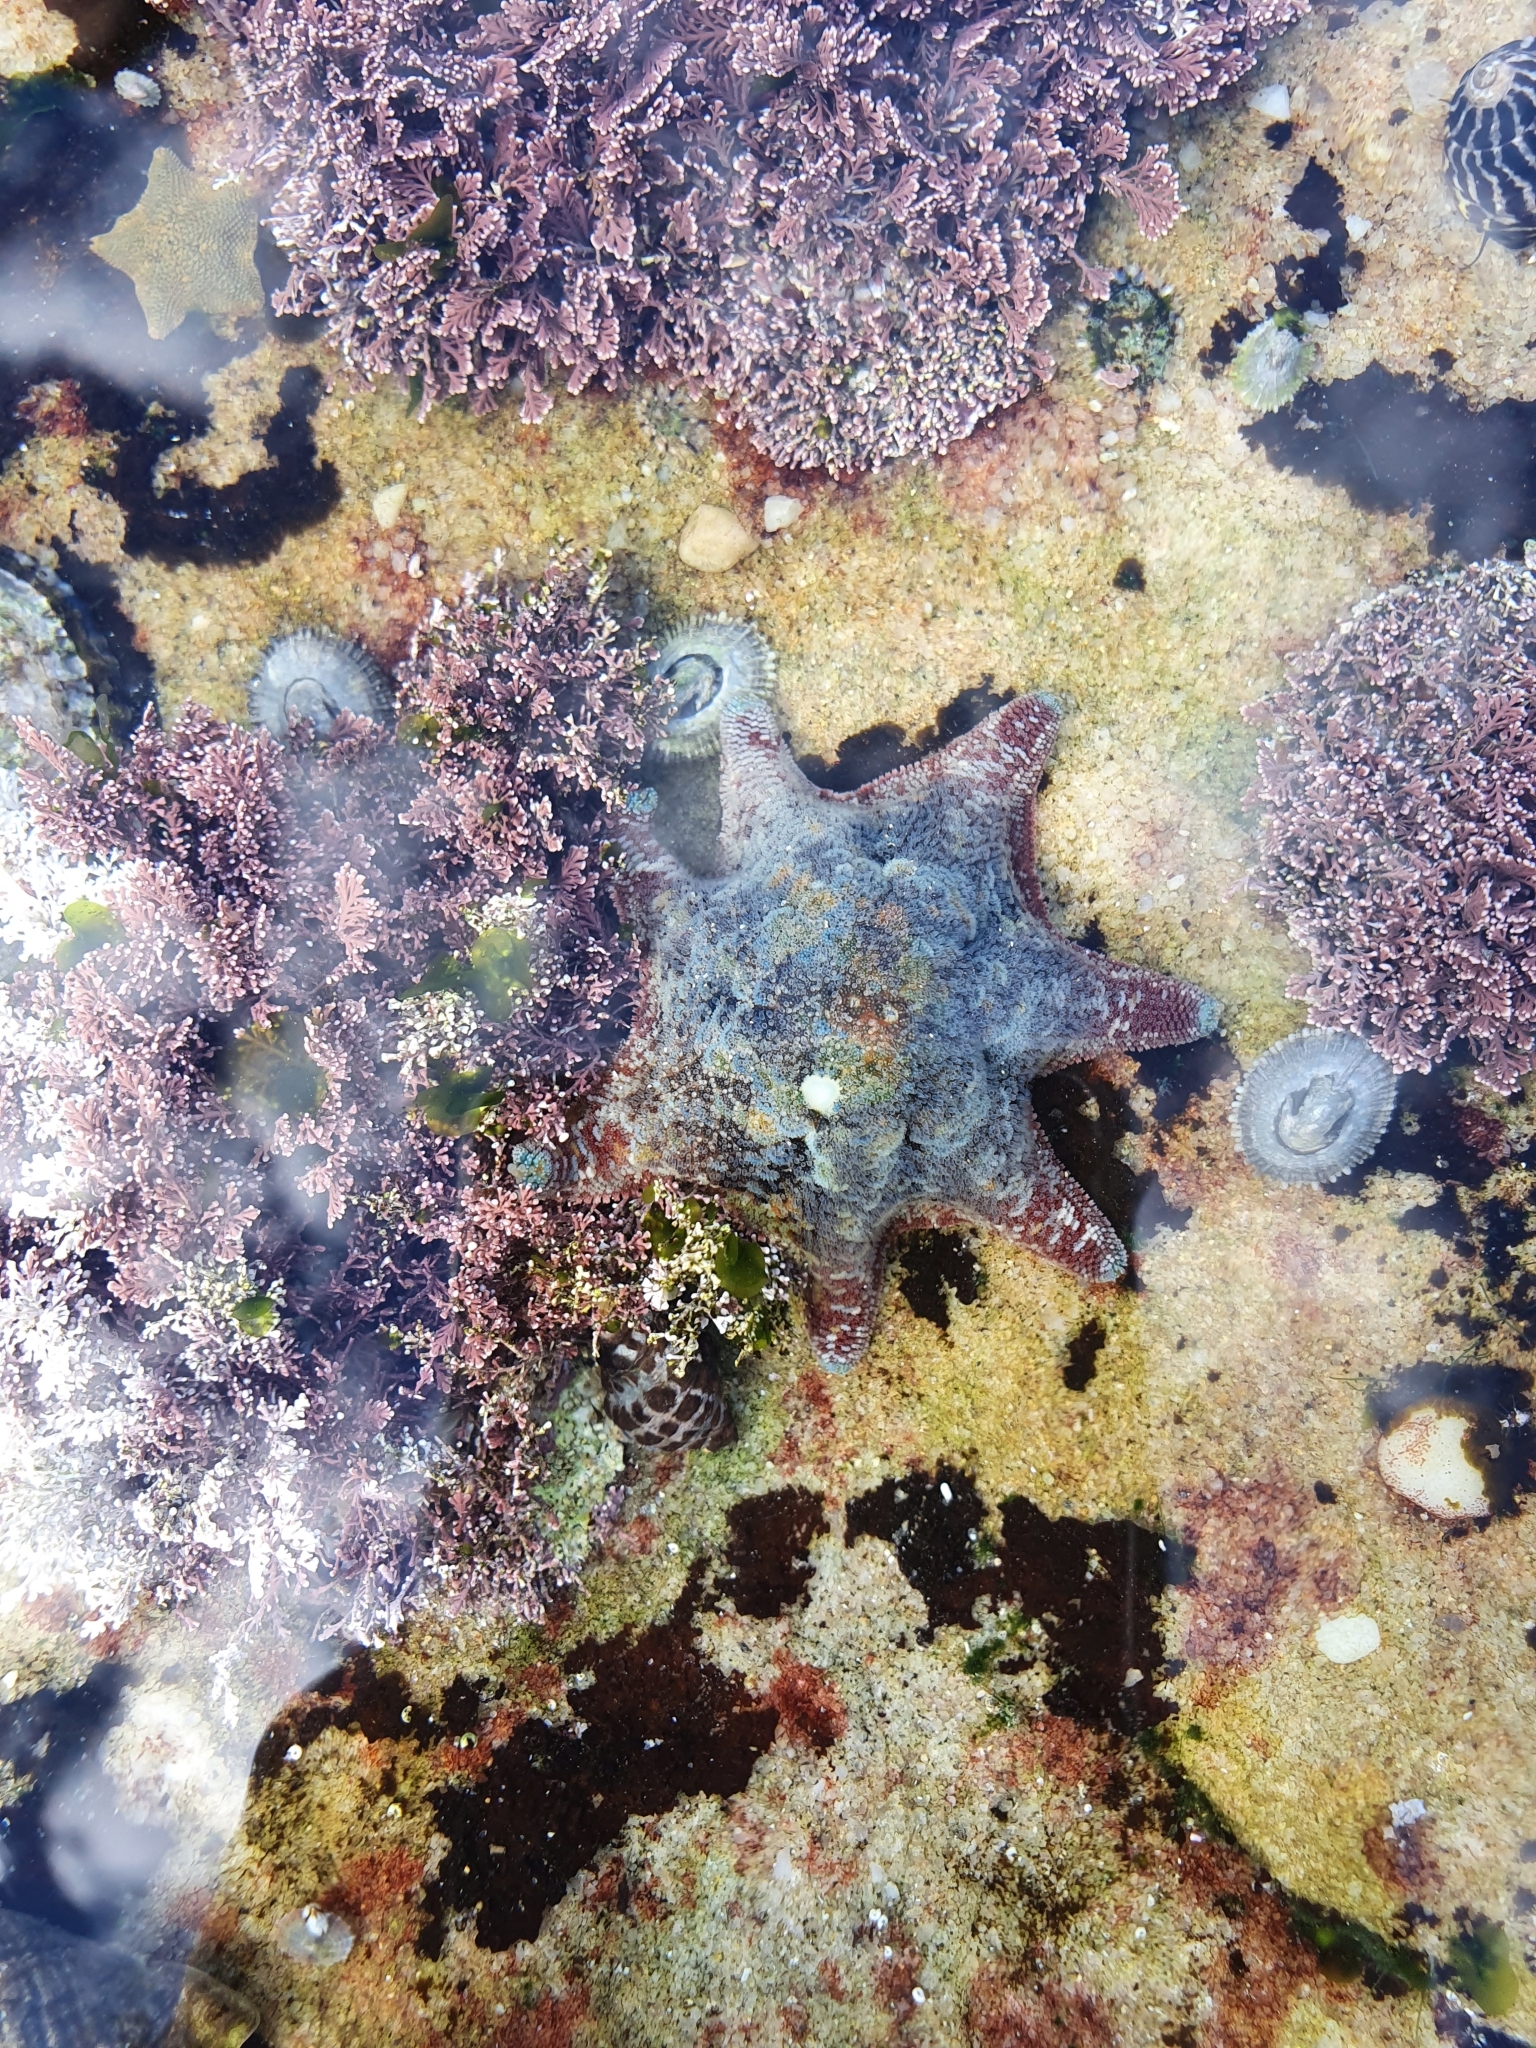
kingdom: Animalia
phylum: Echinodermata
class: Asteroidea
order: Valvatida
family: Asterinidae
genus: Meridiastra
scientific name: Meridiastra calcar
